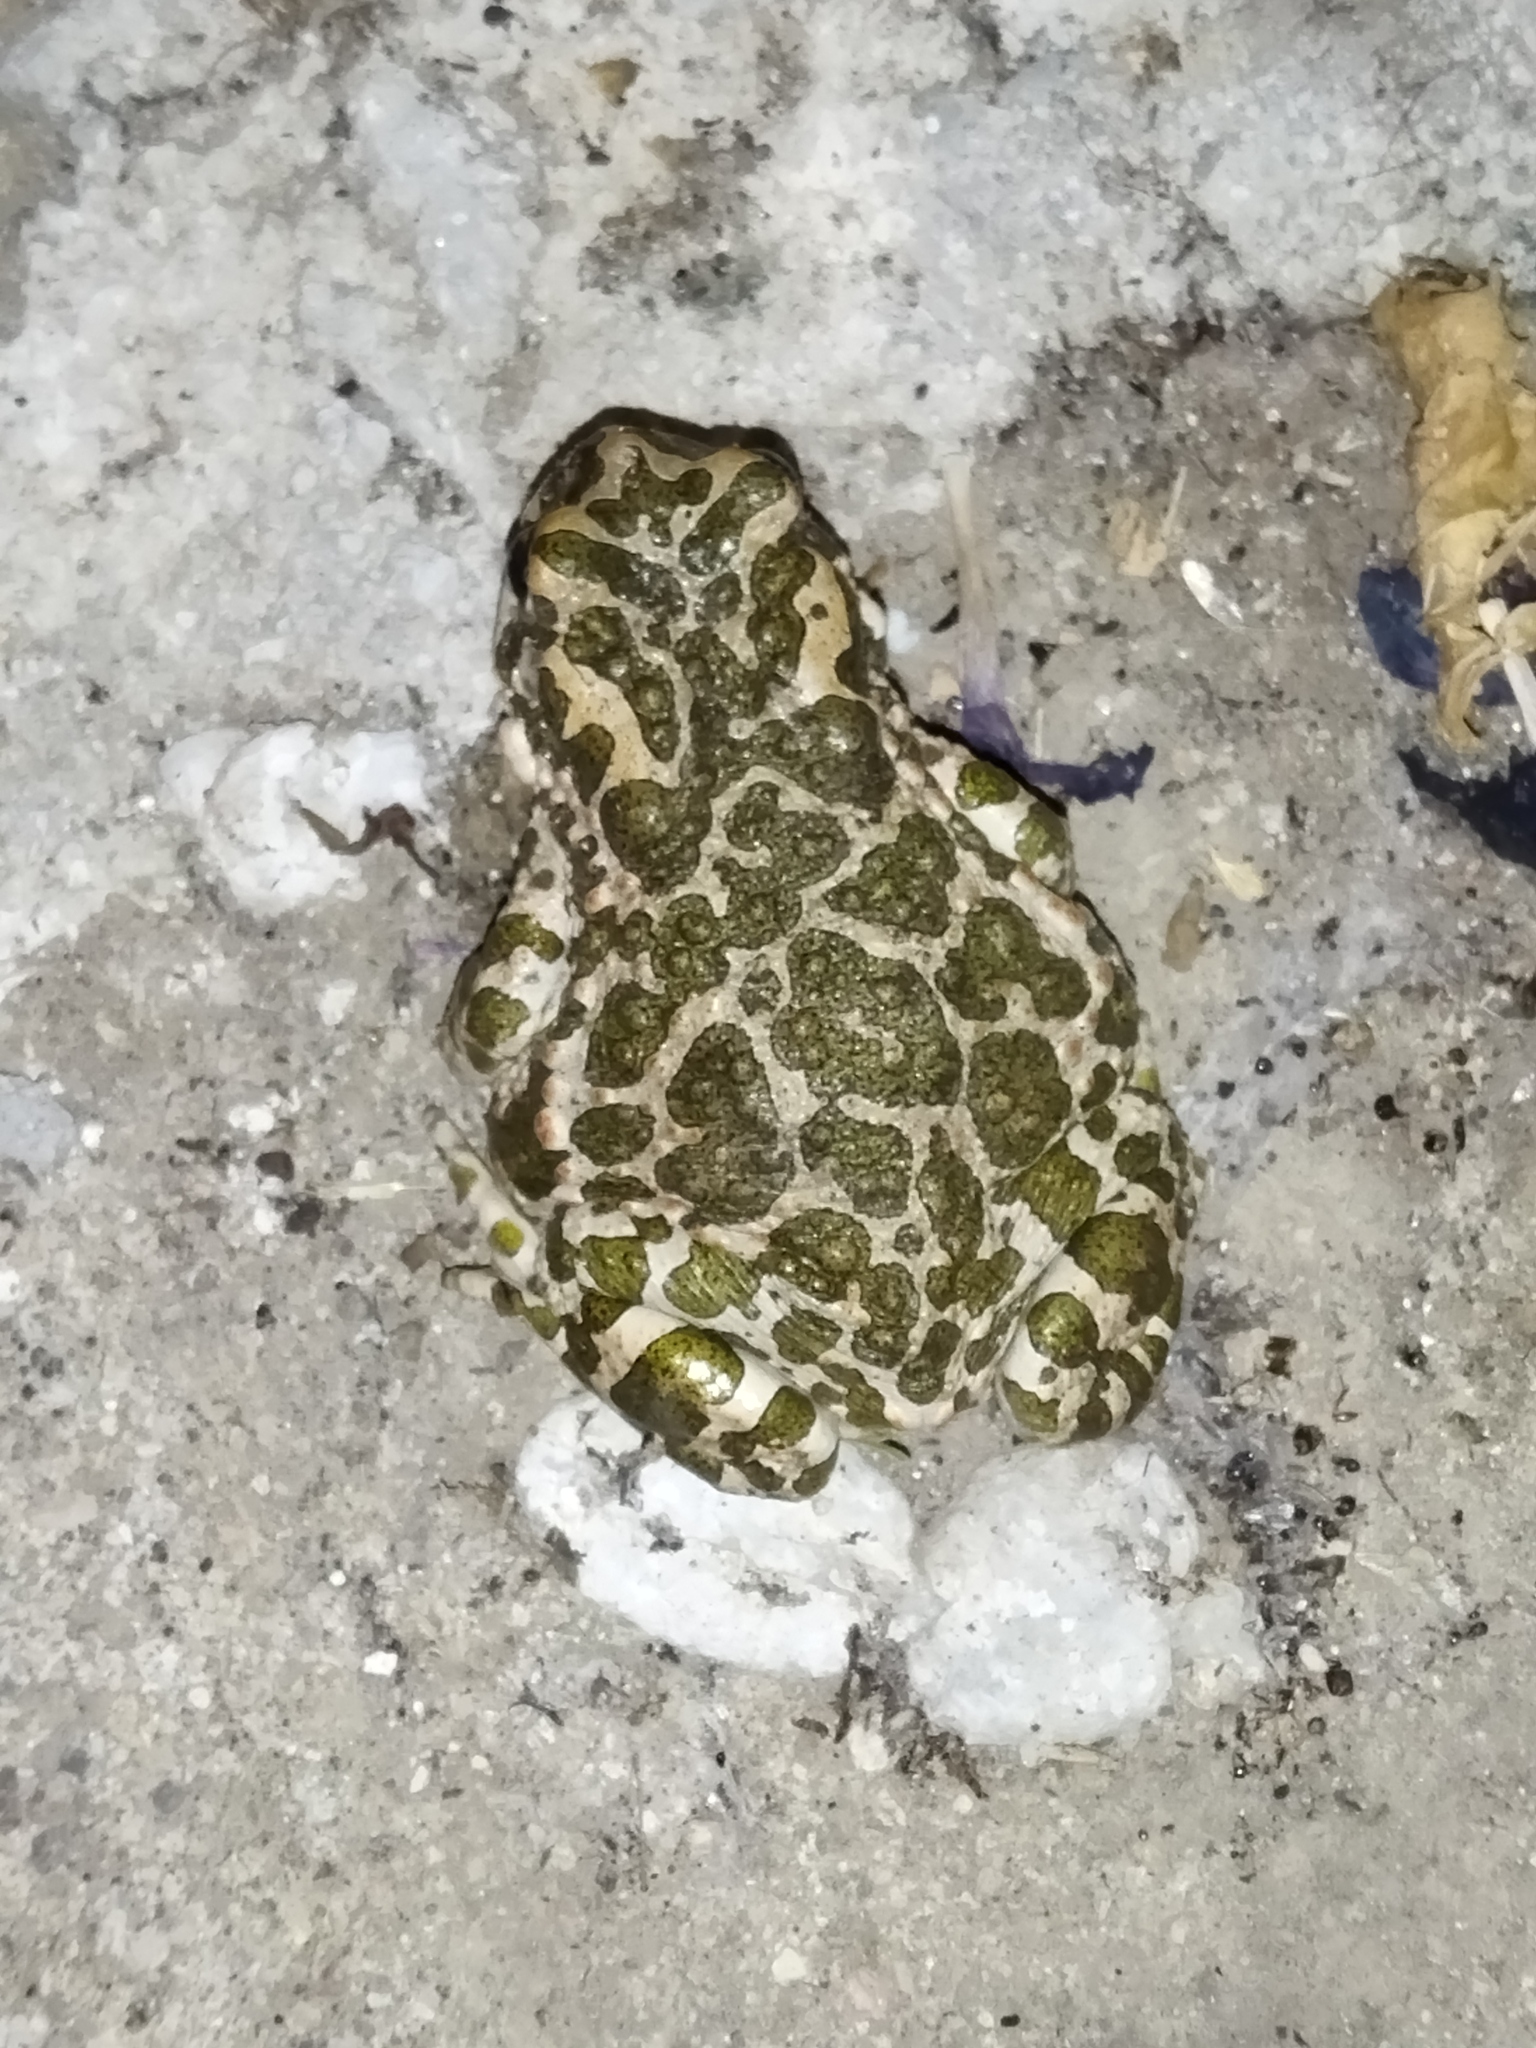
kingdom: Animalia
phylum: Chordata
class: Amphibia
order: Anura
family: Bufonidae
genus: Bufotes
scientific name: Bufotes viridis
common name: European green toad
